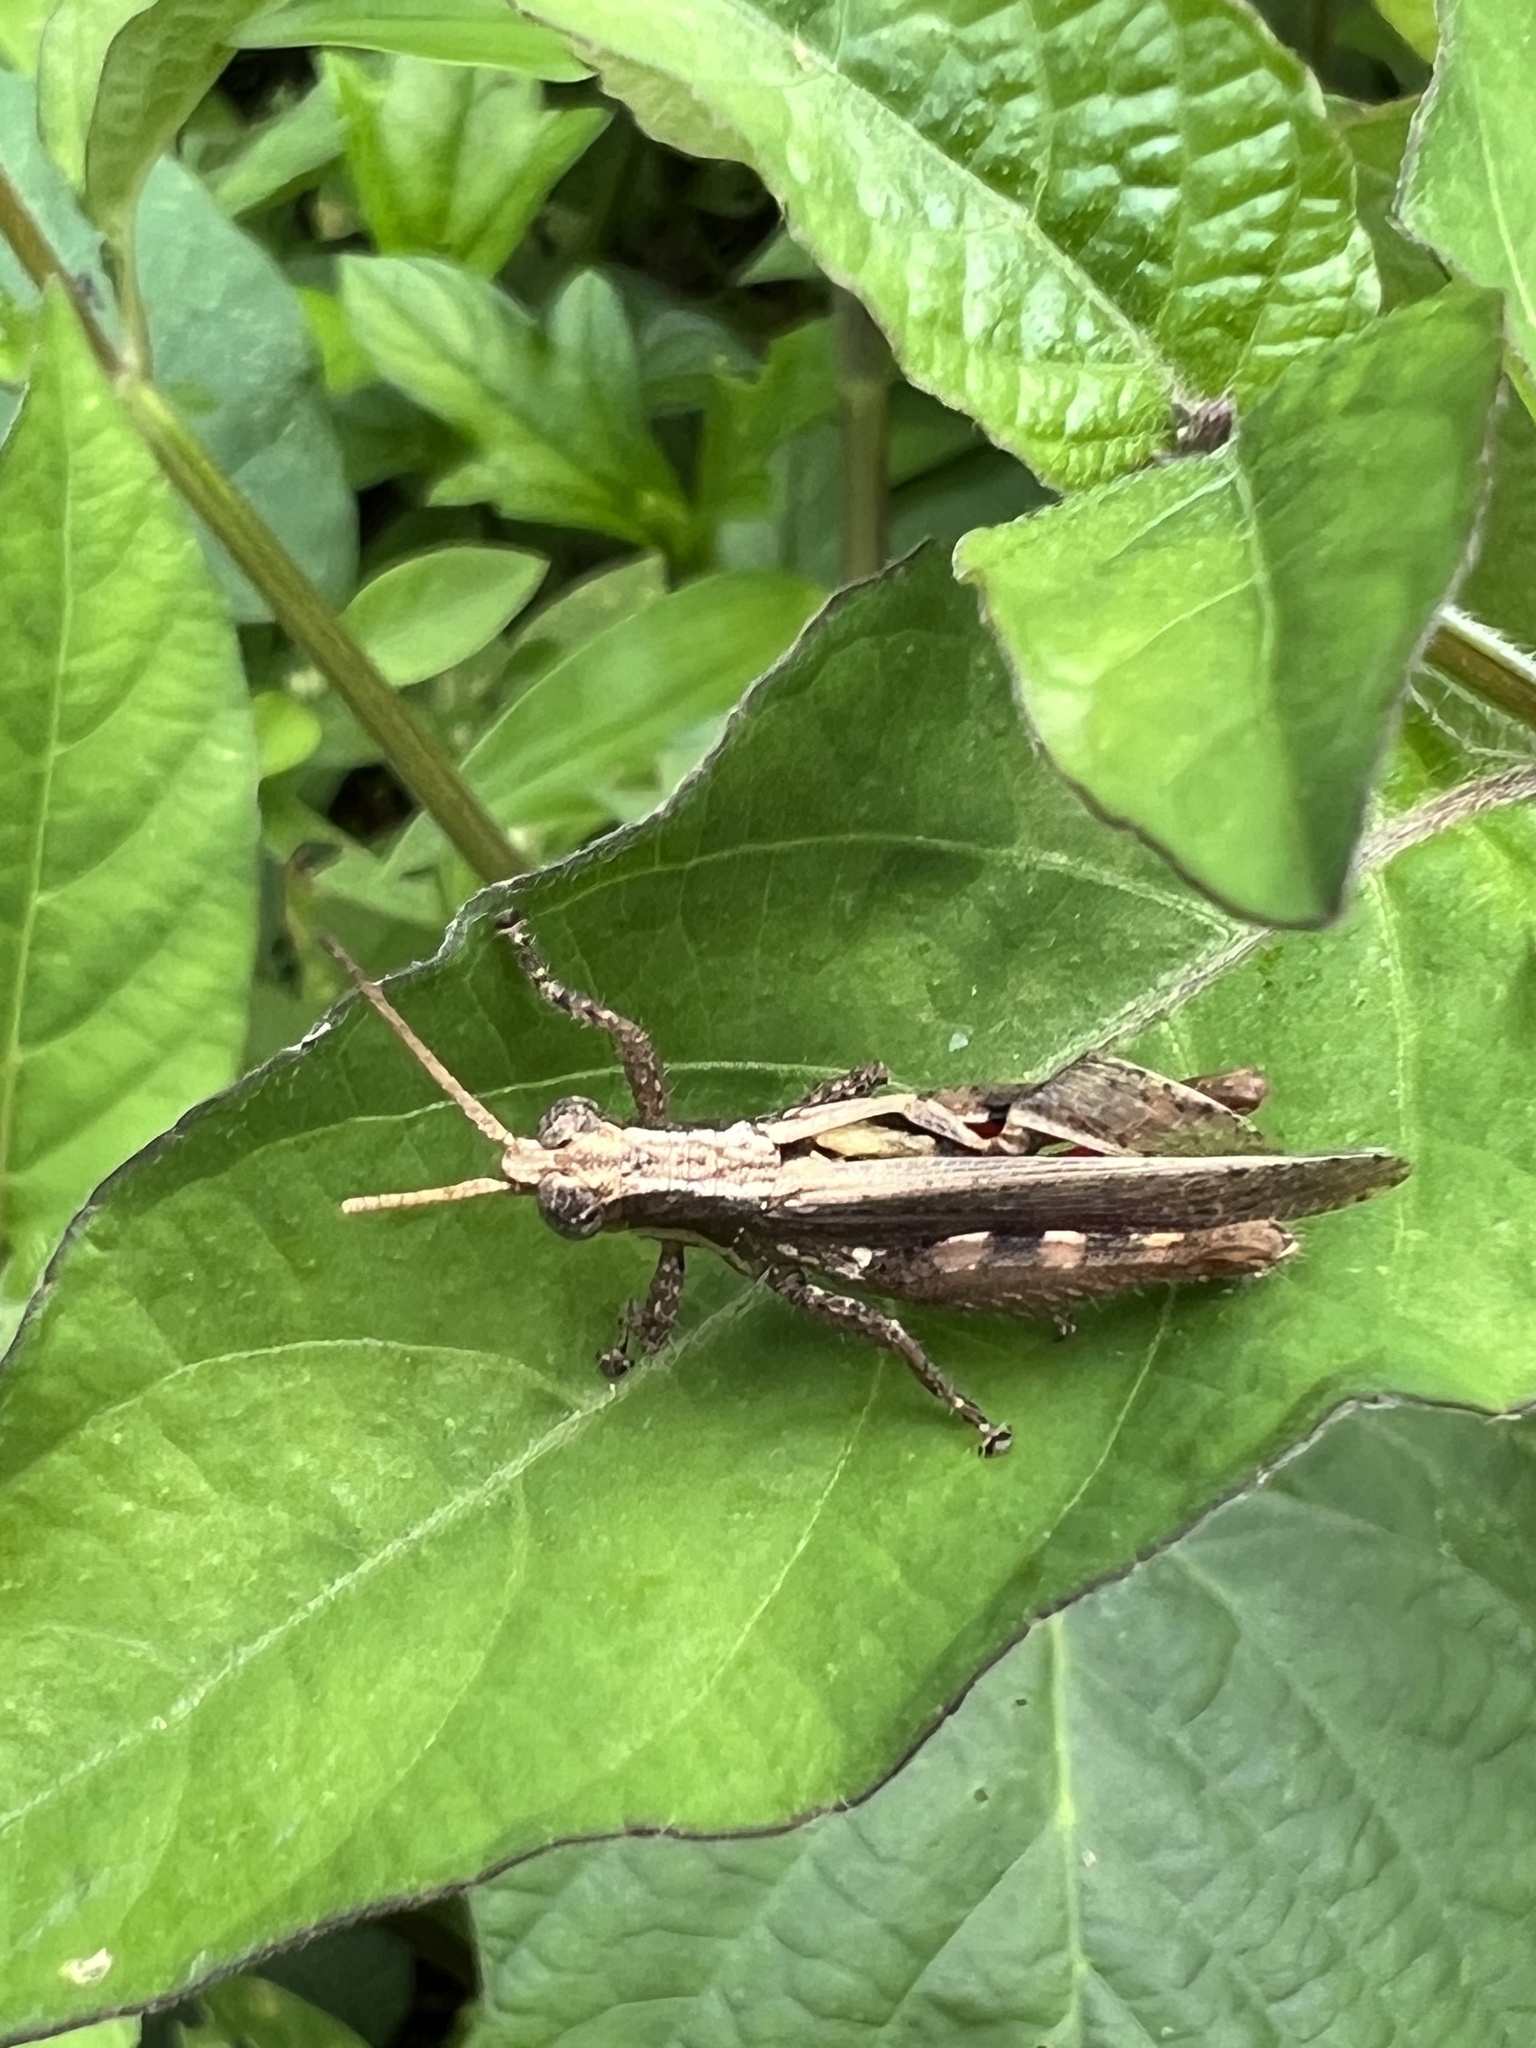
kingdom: Animalia
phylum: Arthropoda
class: Insecta
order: Orthoptera
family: Acrididae
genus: Vilerna
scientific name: Vilerna polita
